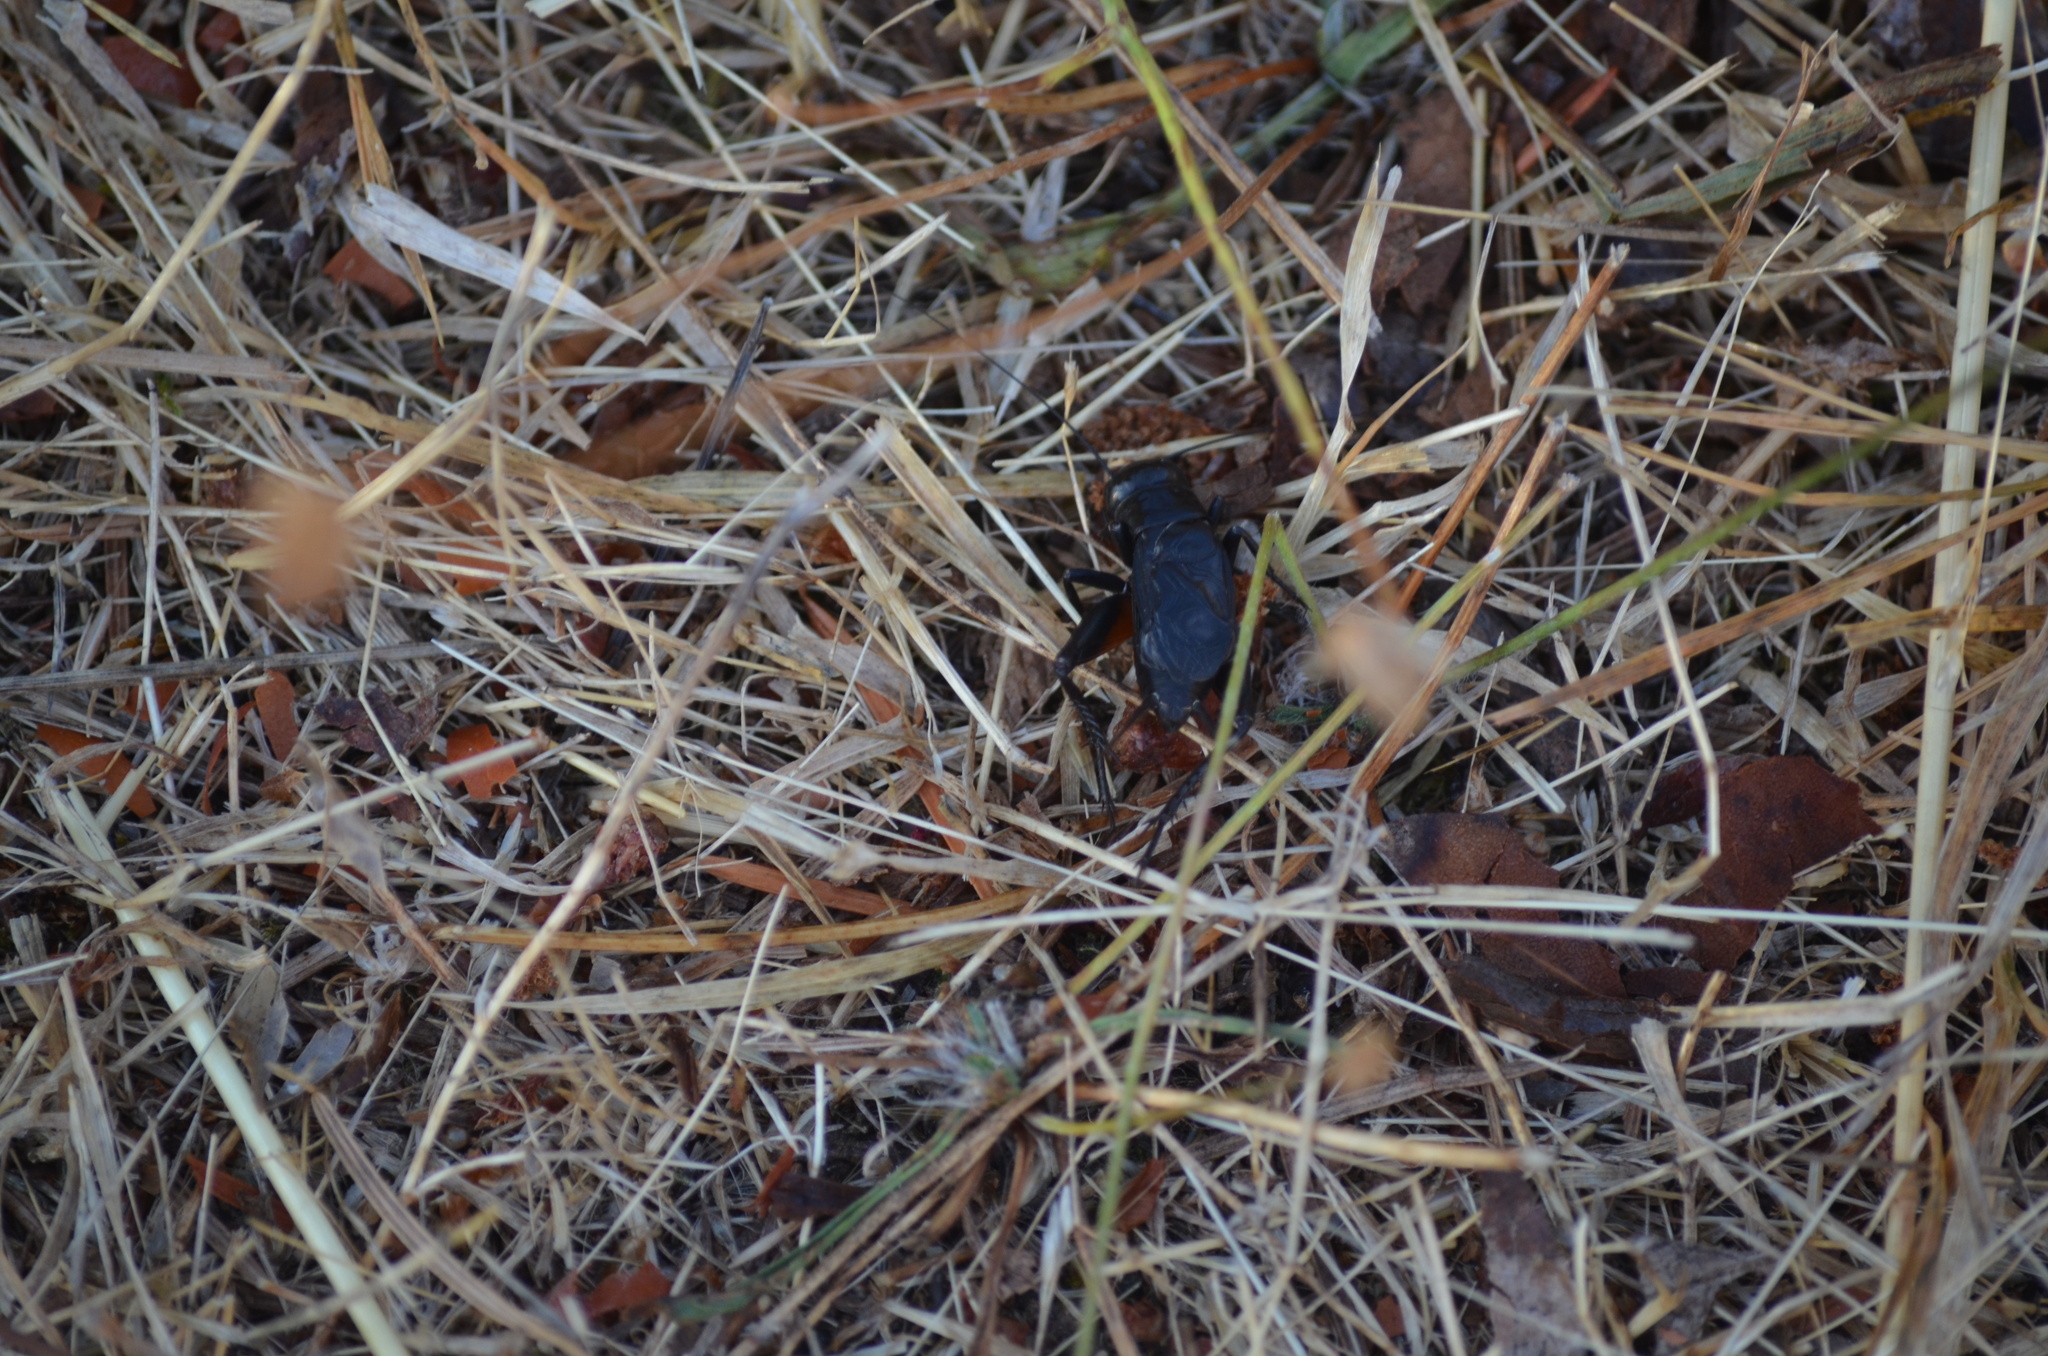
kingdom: Animalia
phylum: Arthropoda
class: Insecta
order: Orthoptera
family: Gryllidae
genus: Gryllus
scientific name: Gryllus pennsylvanicus
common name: Fall field cricket
